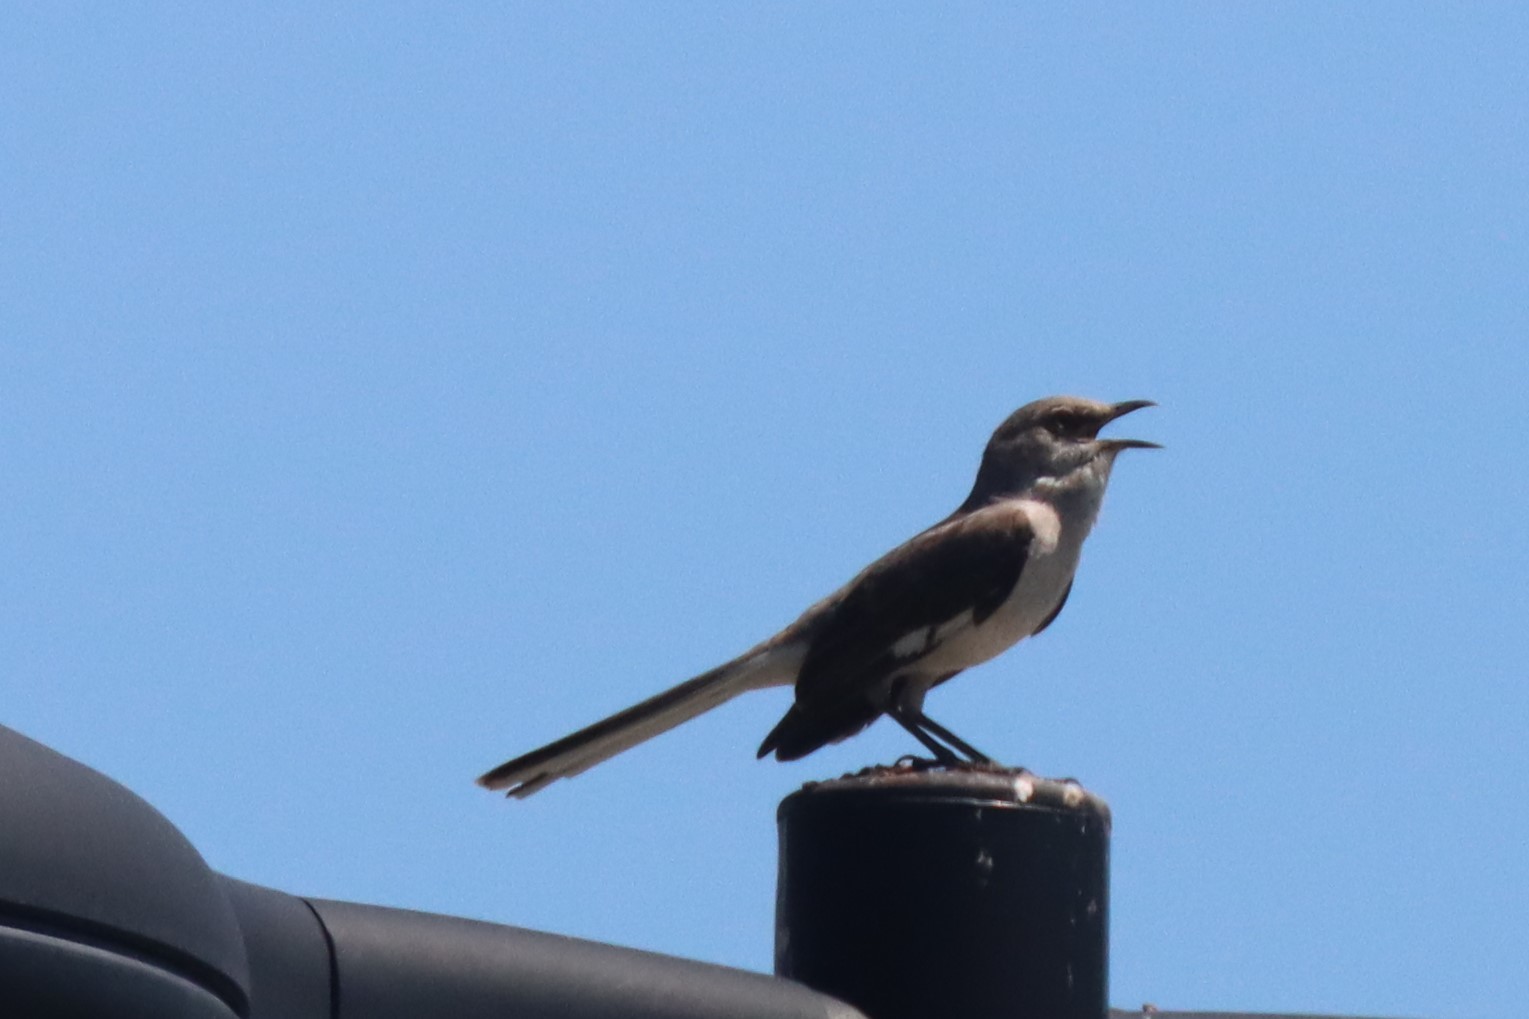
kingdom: Animalia
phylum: Chordata
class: Aves
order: Passeriformes
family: Mimidae
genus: Mimus
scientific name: Mimus polyglottos
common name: Northern mockingbird
